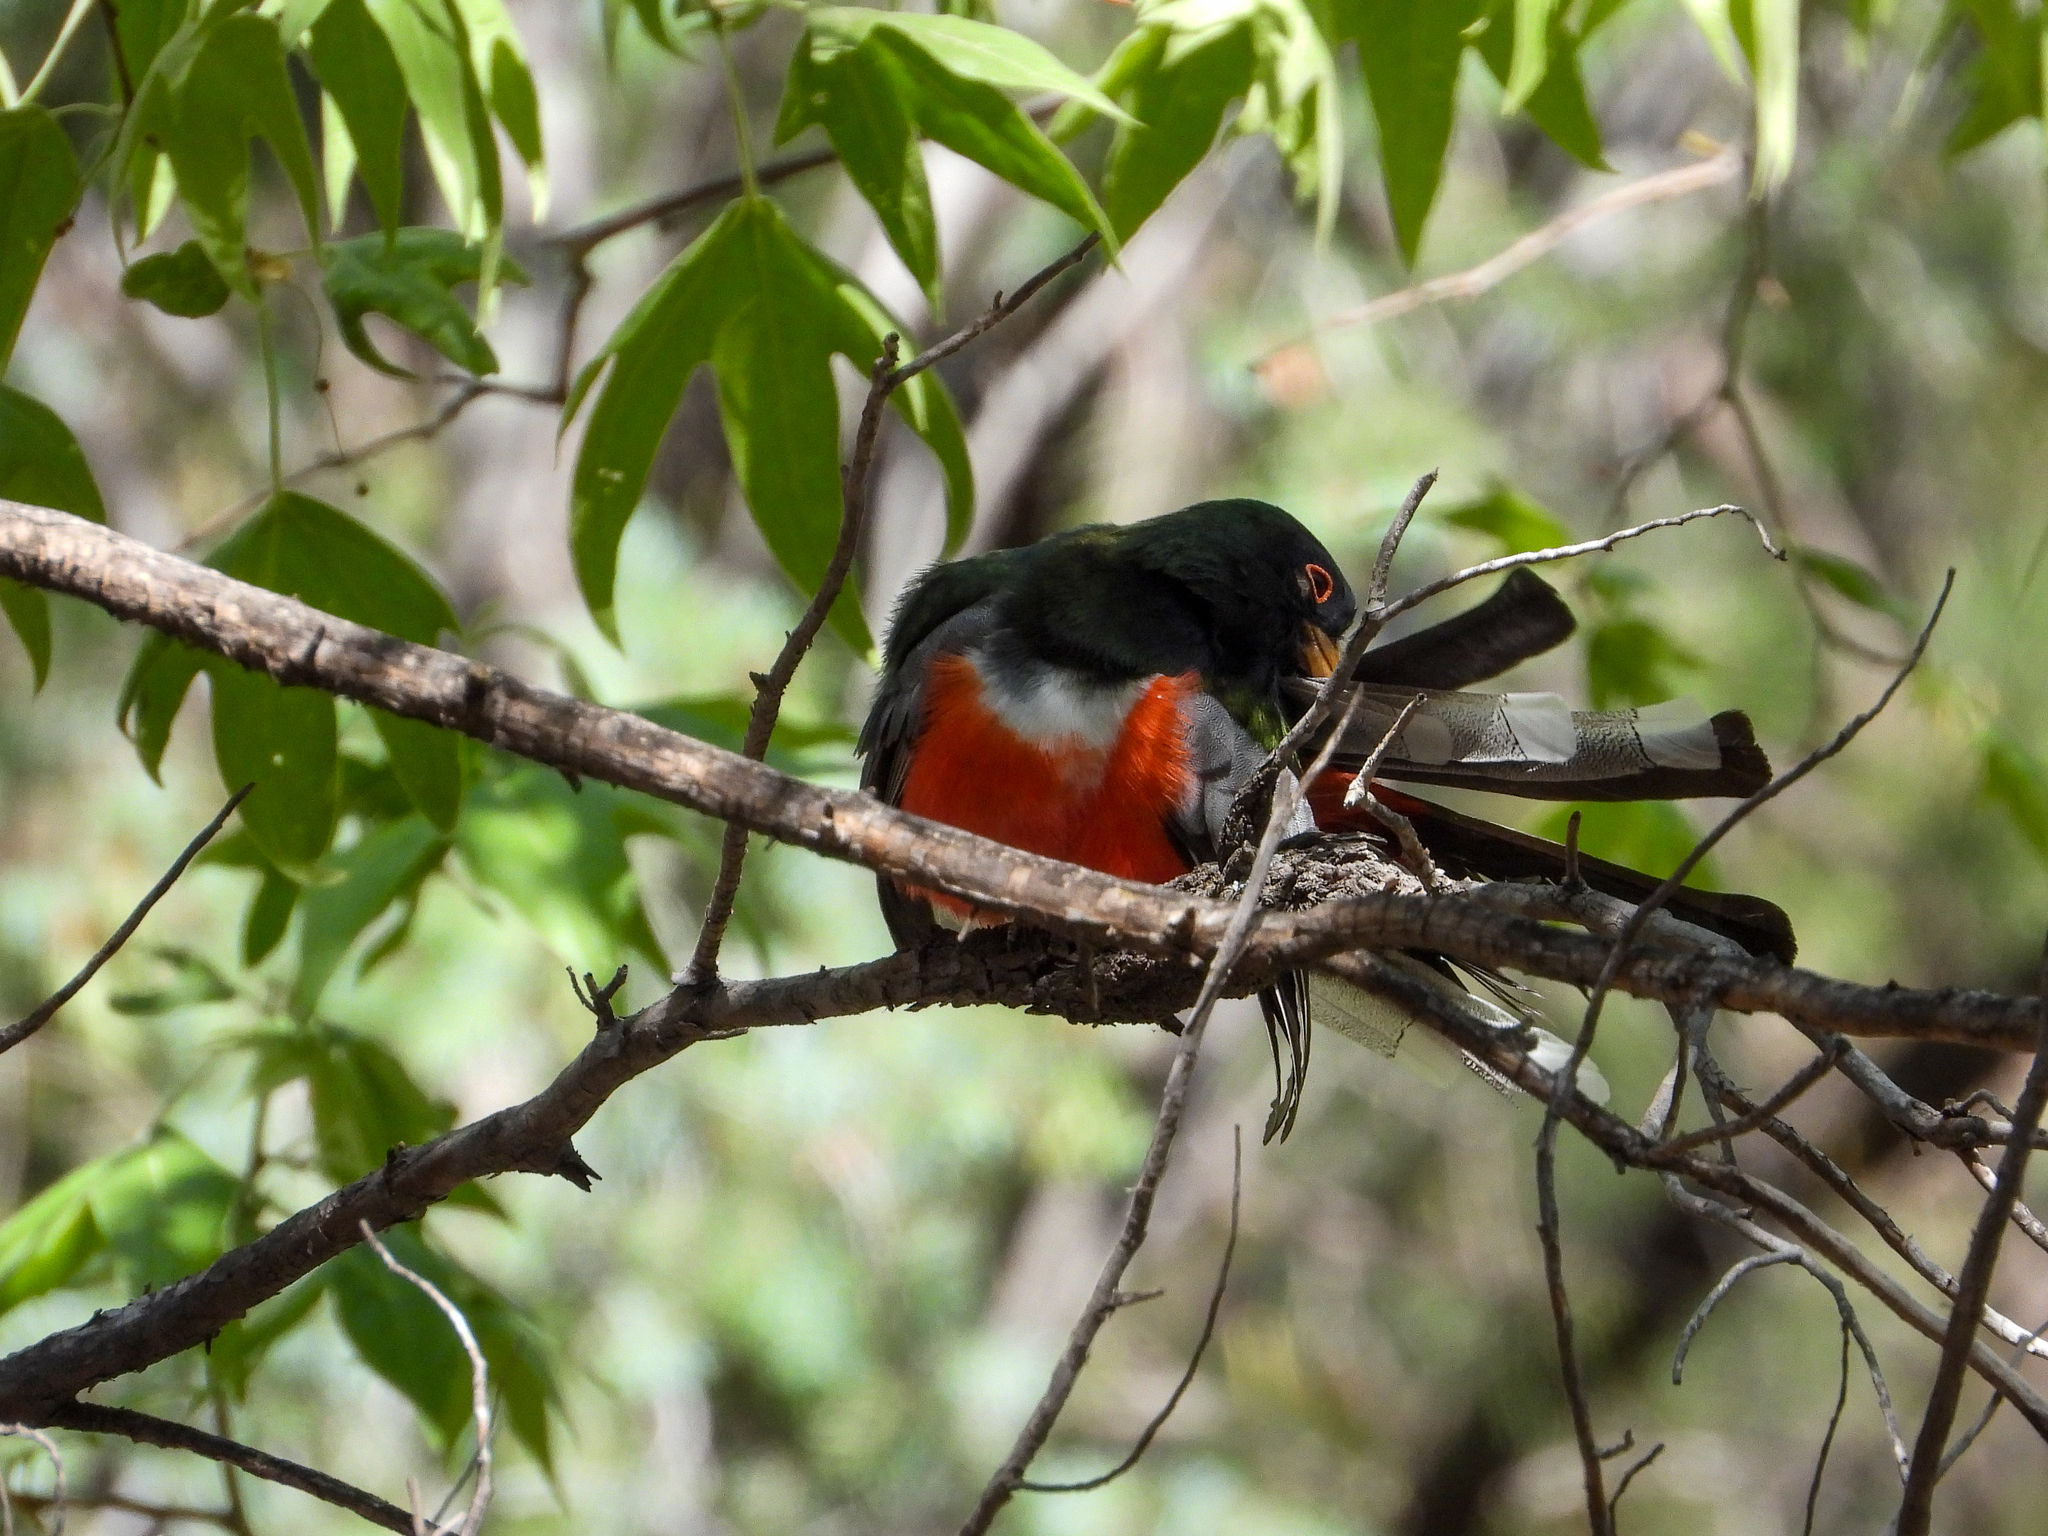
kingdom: Animalia
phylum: Chordata
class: Aves
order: Trogoniformes
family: Trogonidae
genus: Trogon
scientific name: Trogon elegans
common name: Elegant trogon
